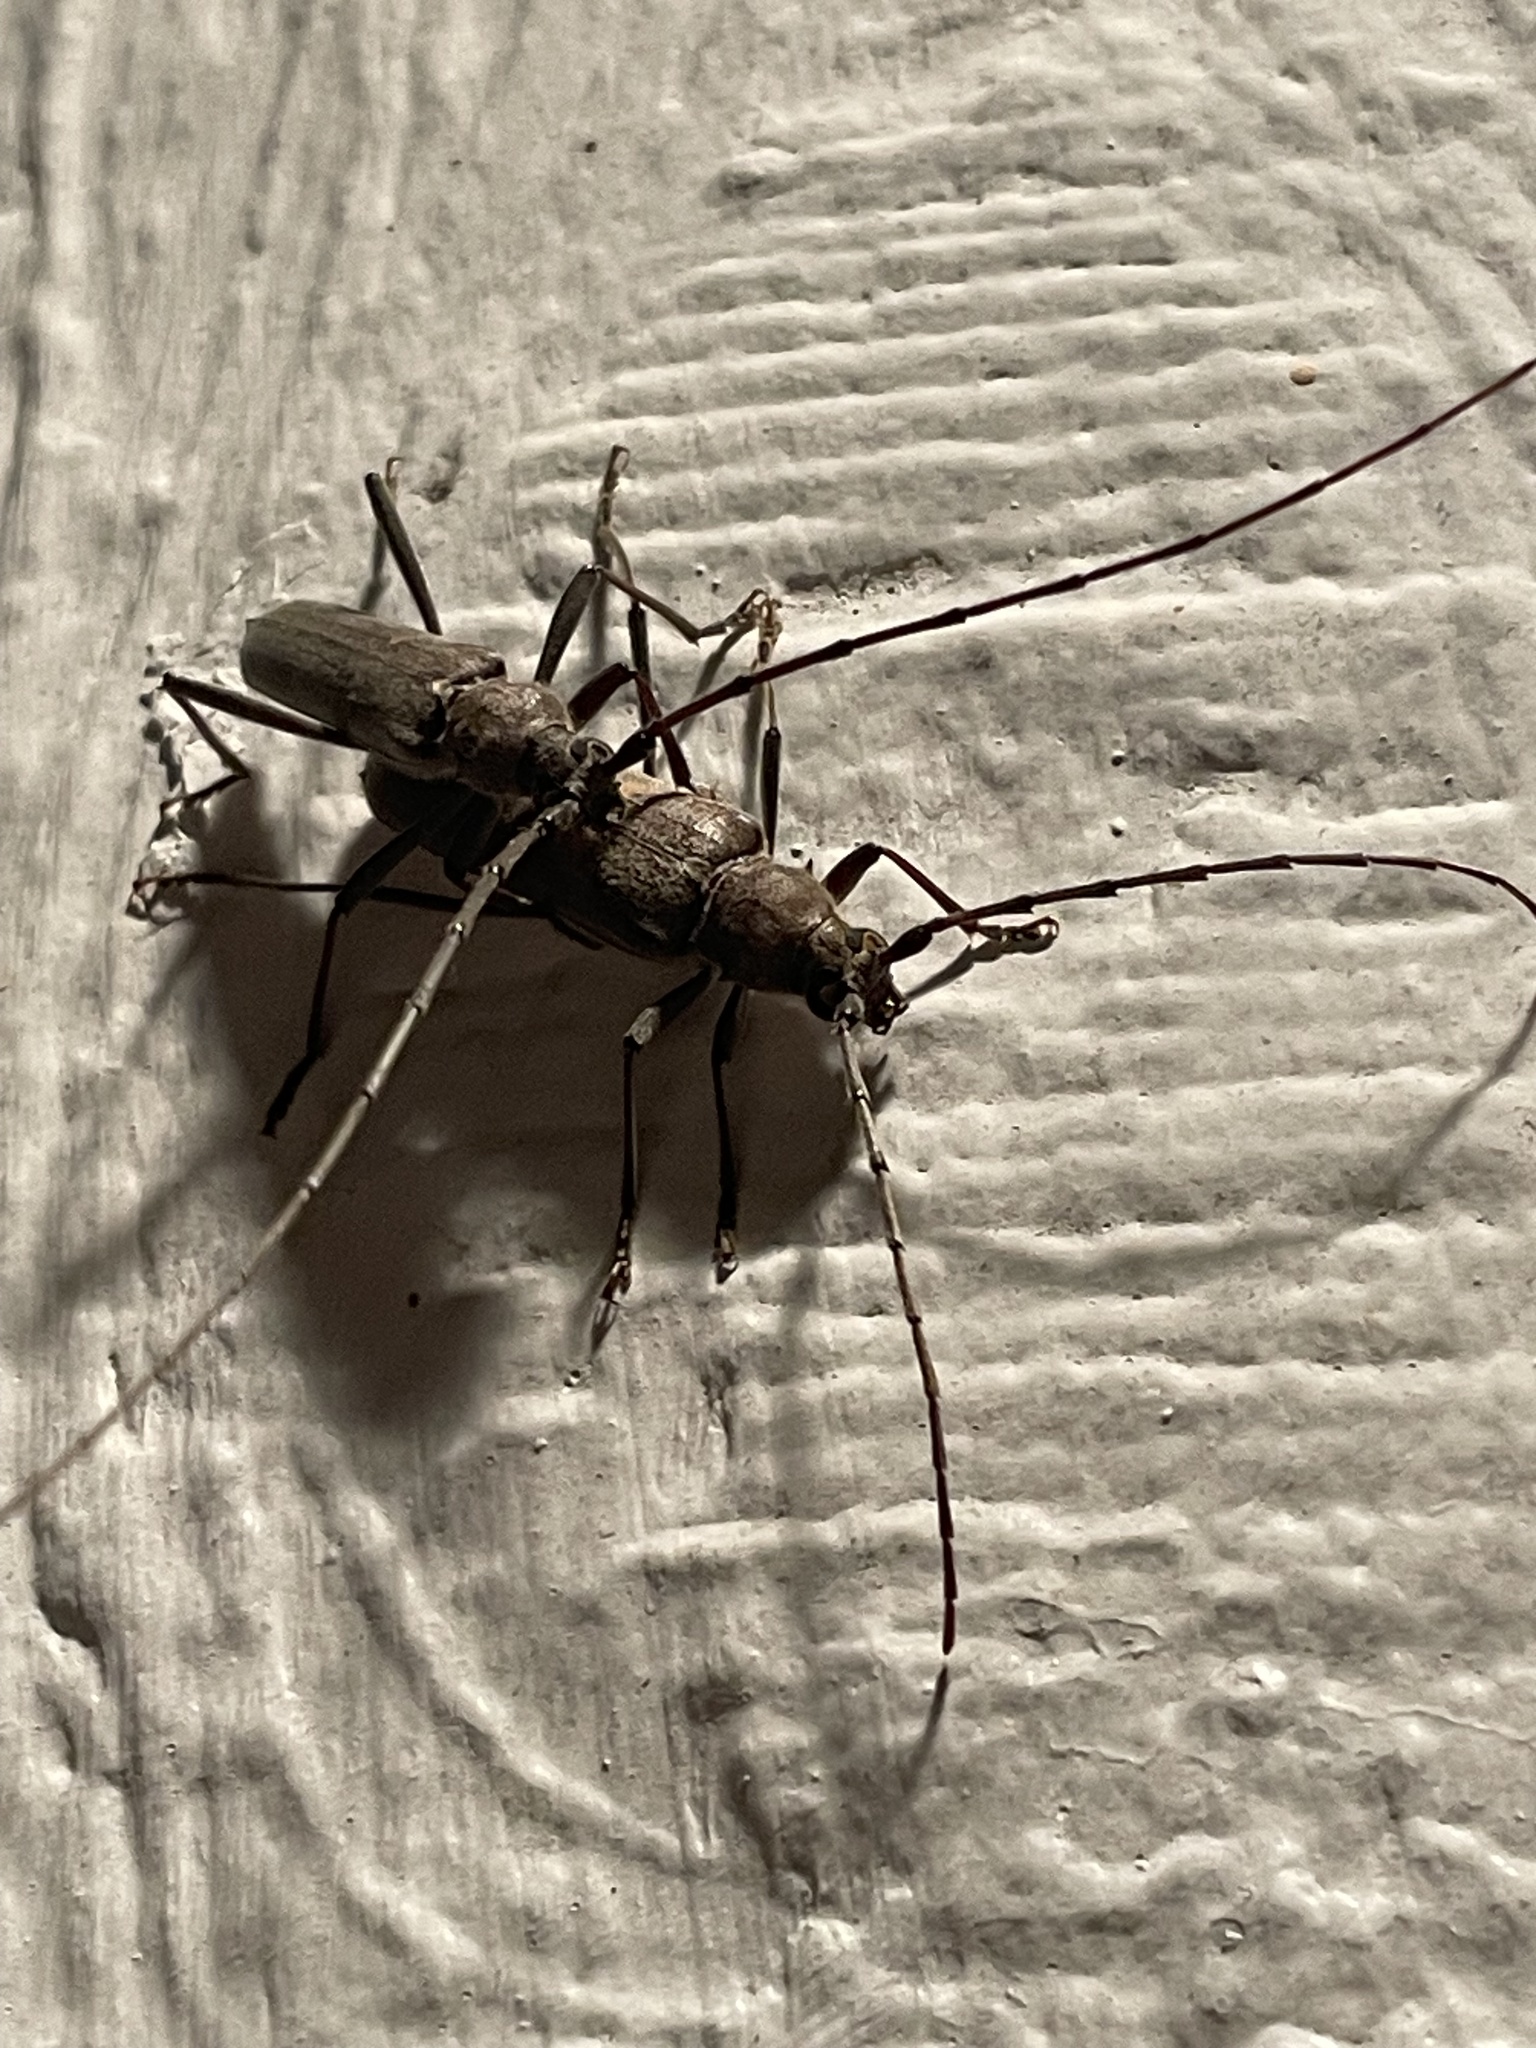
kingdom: Animalia
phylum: Arthropoda
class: Insecta
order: Coleoptera
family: Cerambycidae
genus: Knulliana
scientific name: Knulliana cincta
